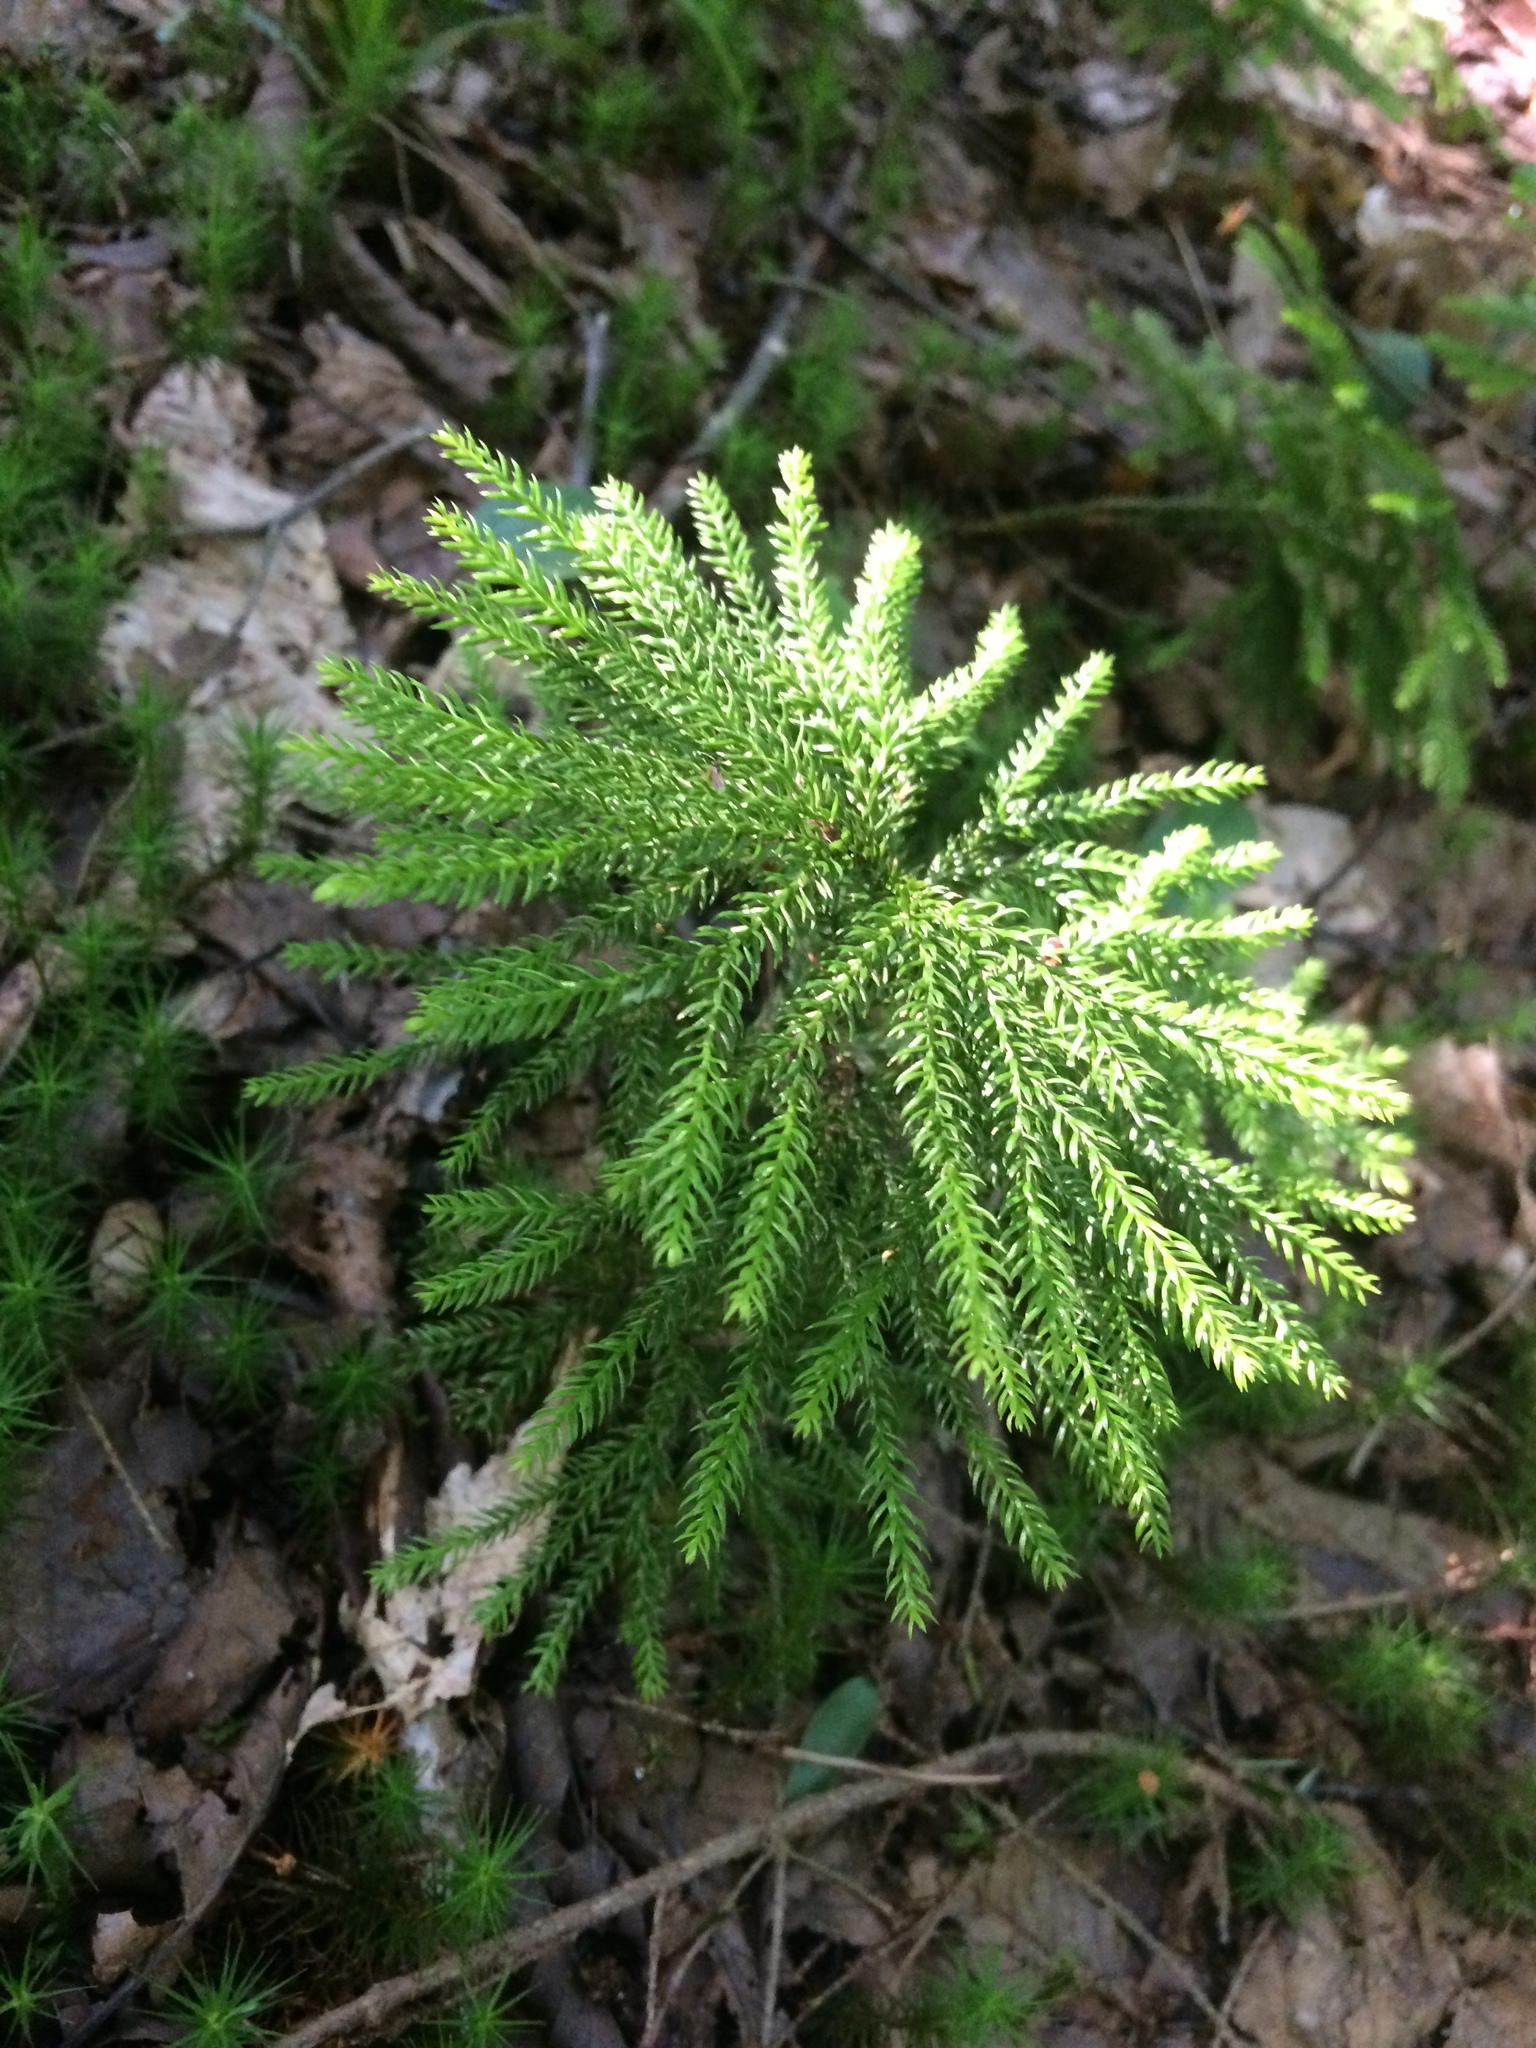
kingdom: Plantae
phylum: Tracheophyta
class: Lycopodiopsida
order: Lycopodiales
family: Lycopodiaceae
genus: Dendrolycopodium
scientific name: Dendrolycopodium obscurum
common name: Common ground-pine
